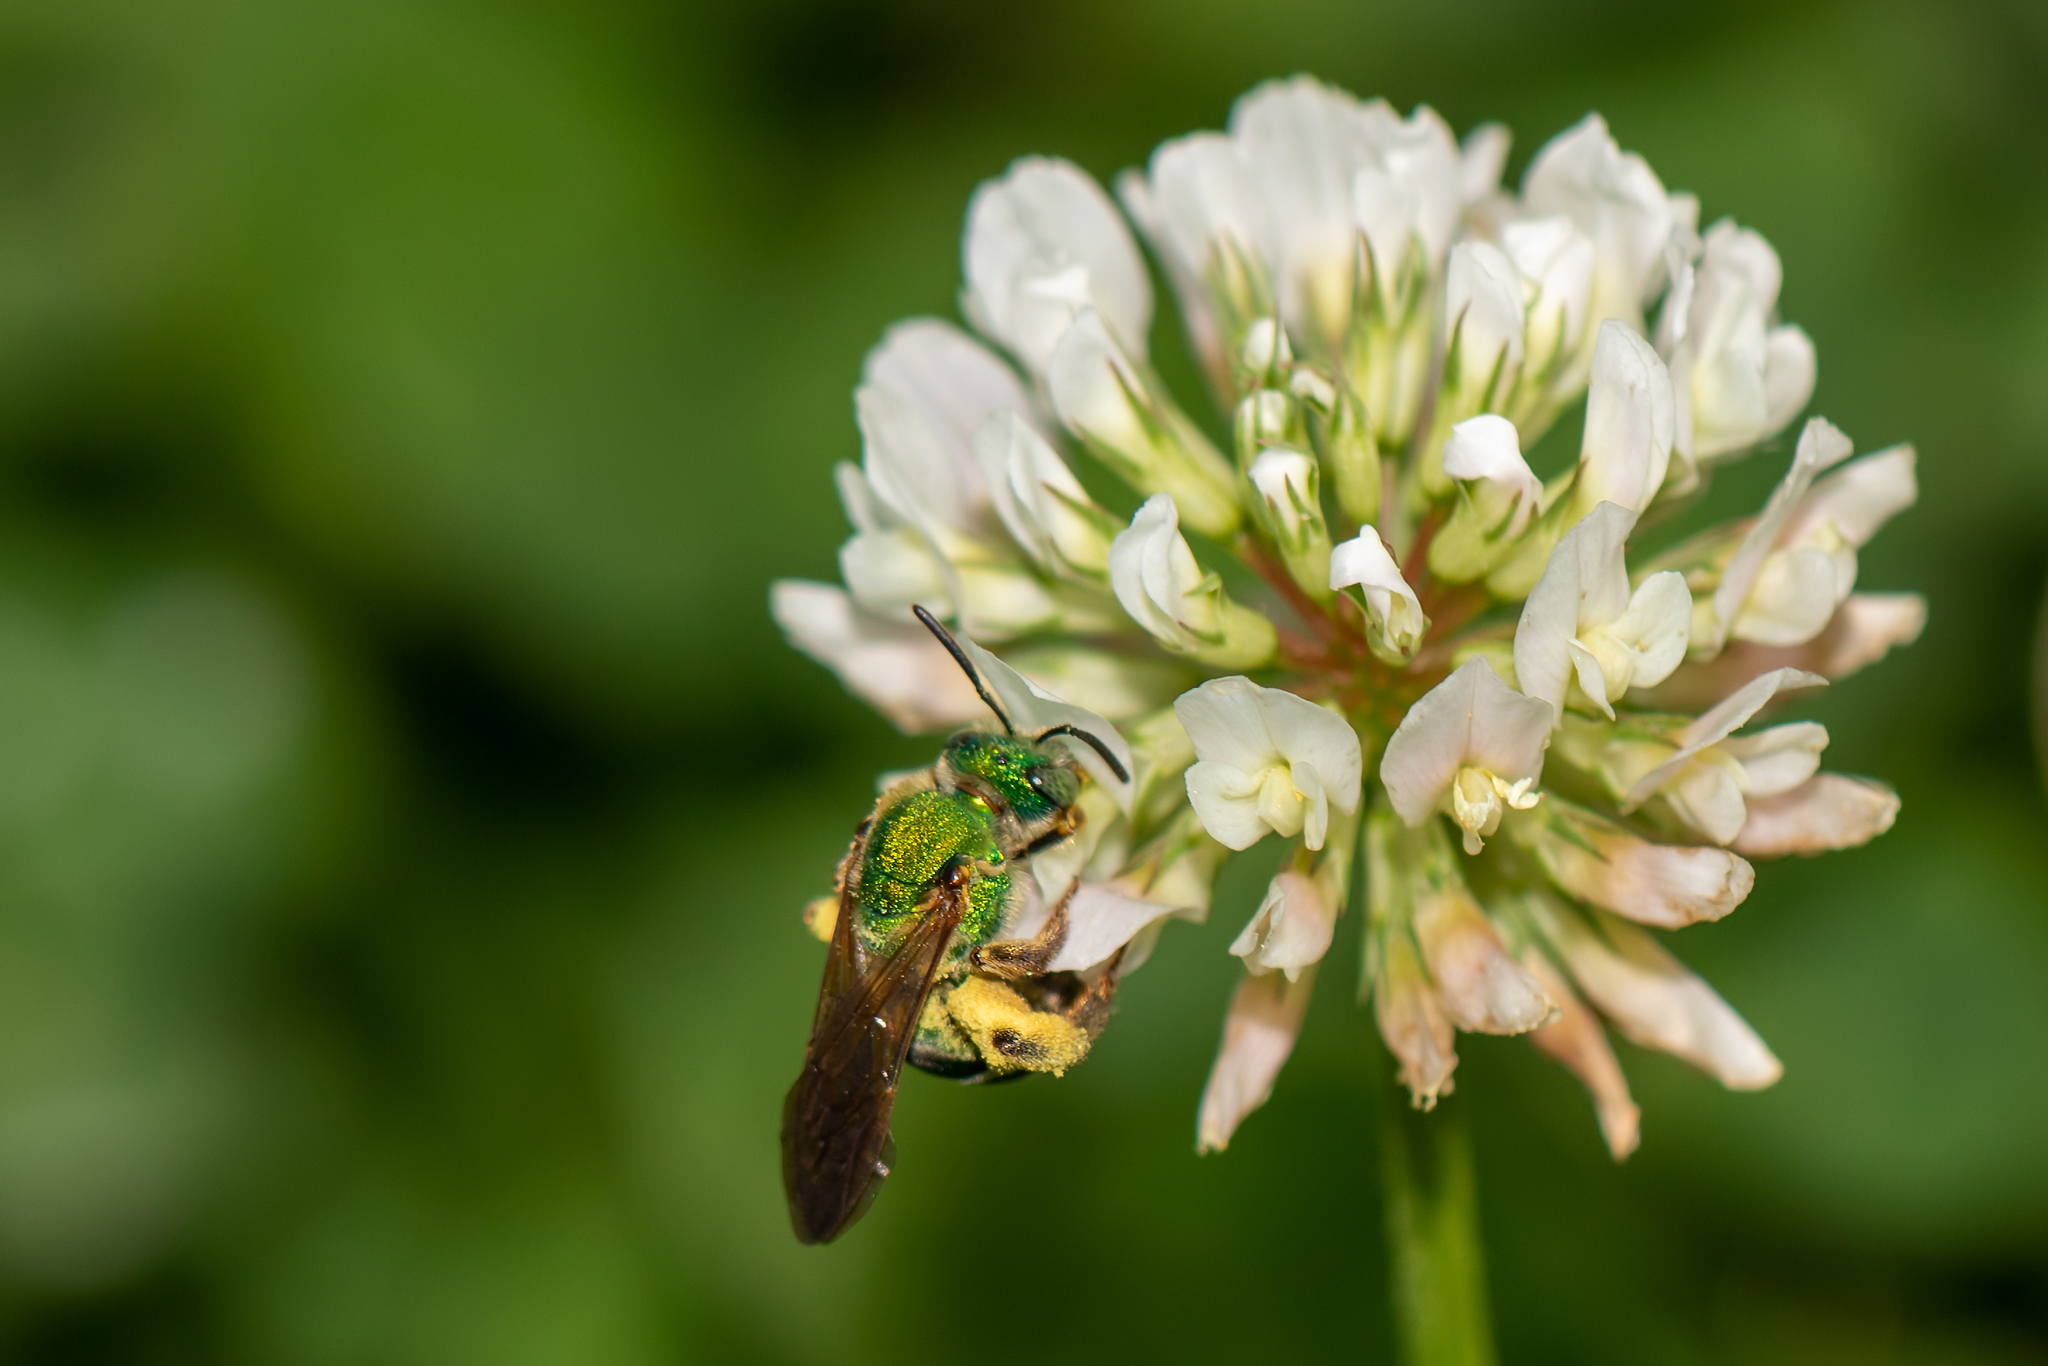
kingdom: Animalia
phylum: Arthropoda
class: Insecta
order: Hymenoptera
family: Halictidae
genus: Agapostemon
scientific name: Agapostemon splendens
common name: Brown-winged striped sweat bee
